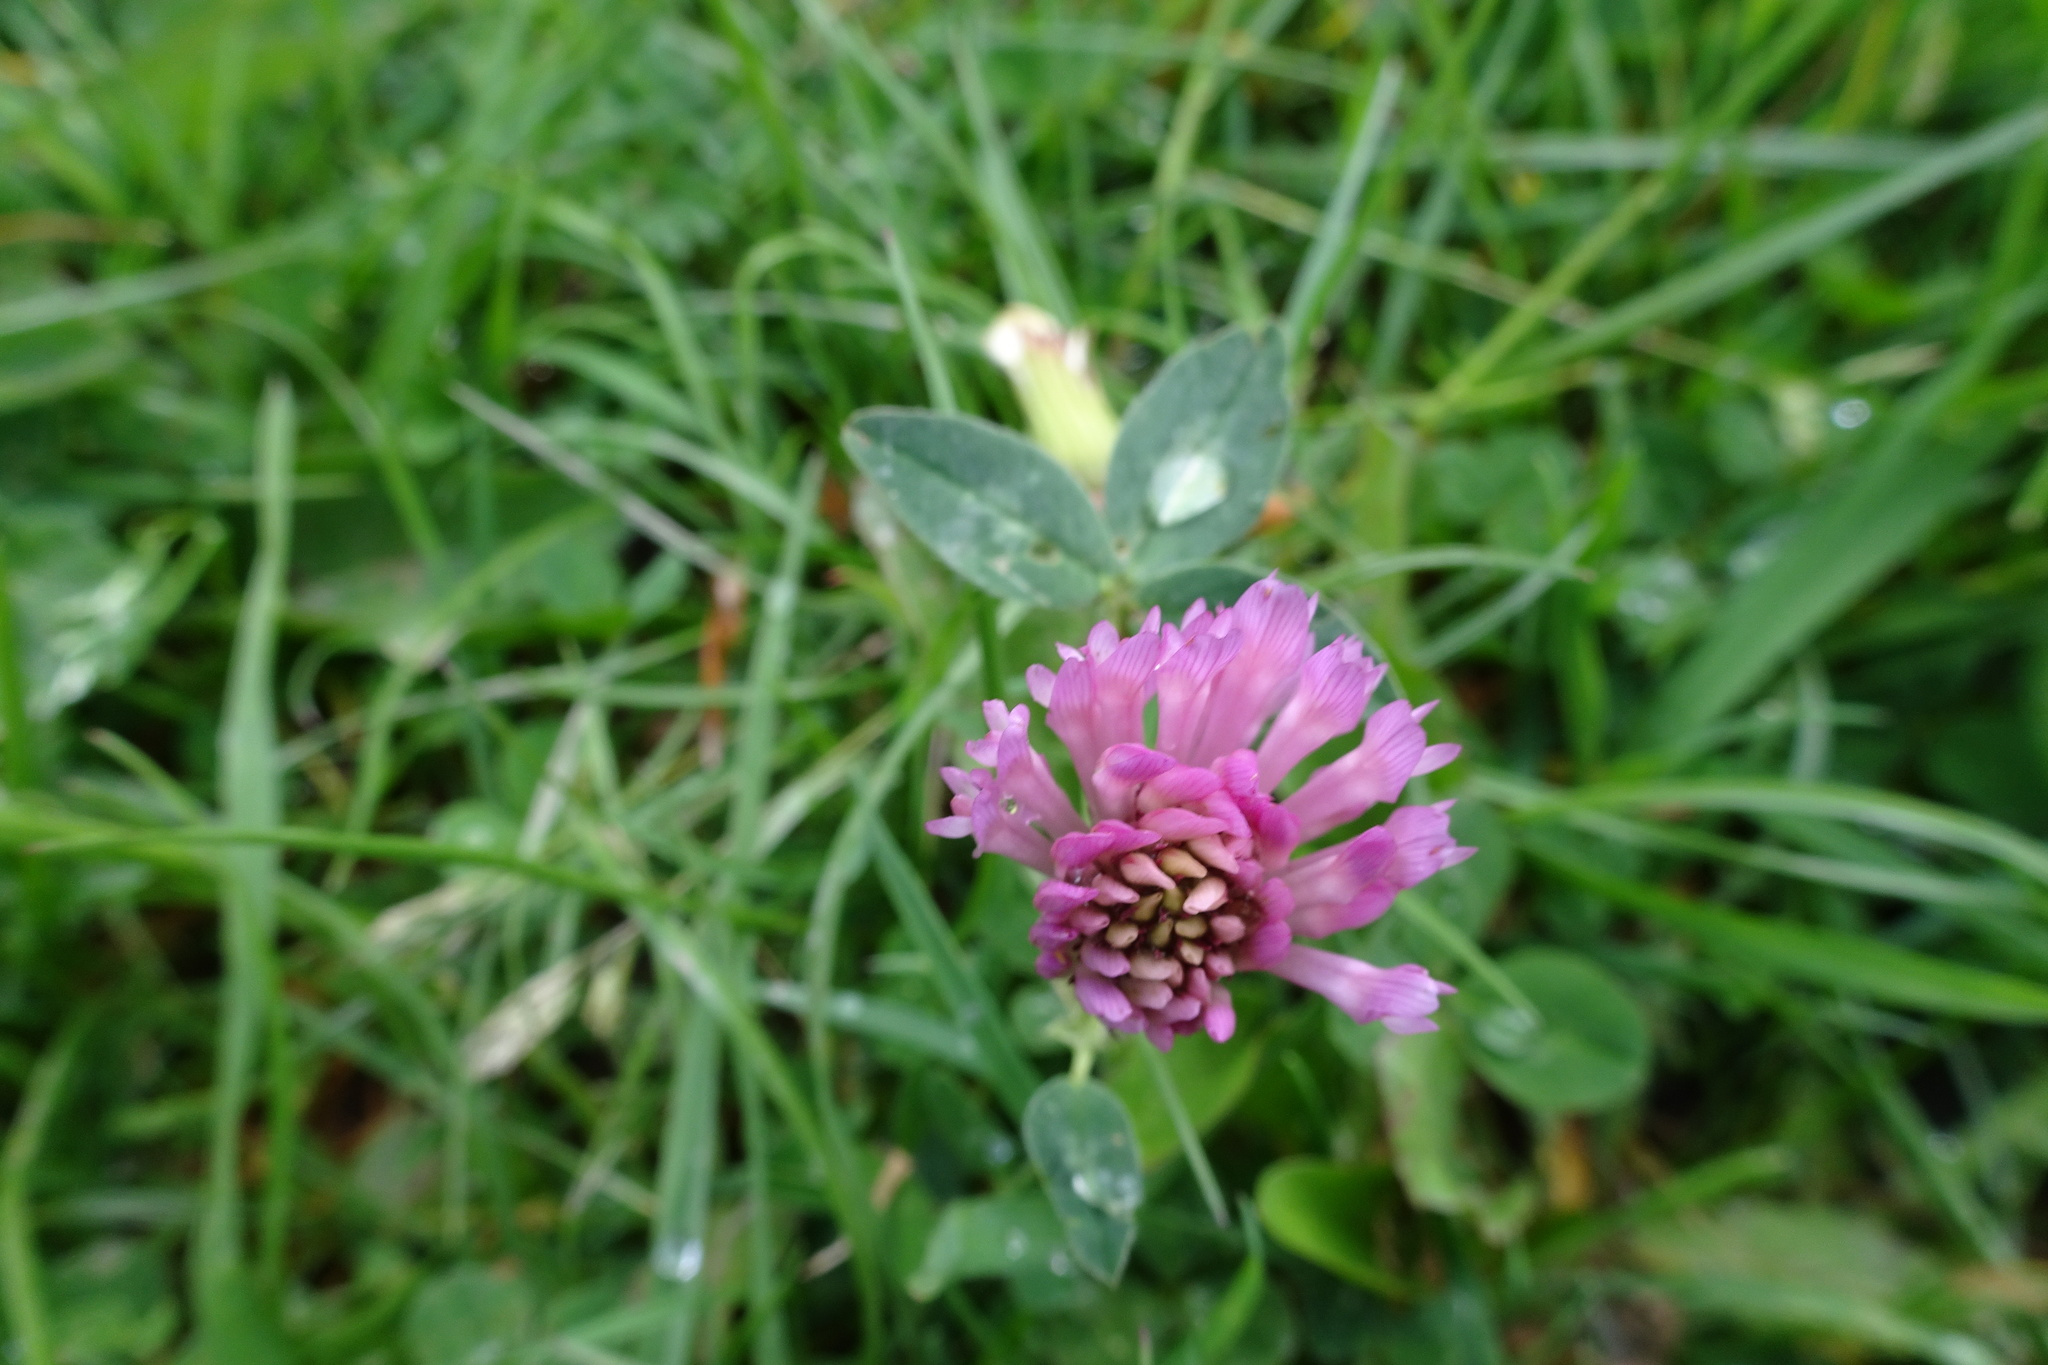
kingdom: Plantae
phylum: Tracheophyta
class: Magnoliopsida
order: Fabales
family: Fabaceae
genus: Trifolium
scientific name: Trifolium pratense
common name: Red clover
